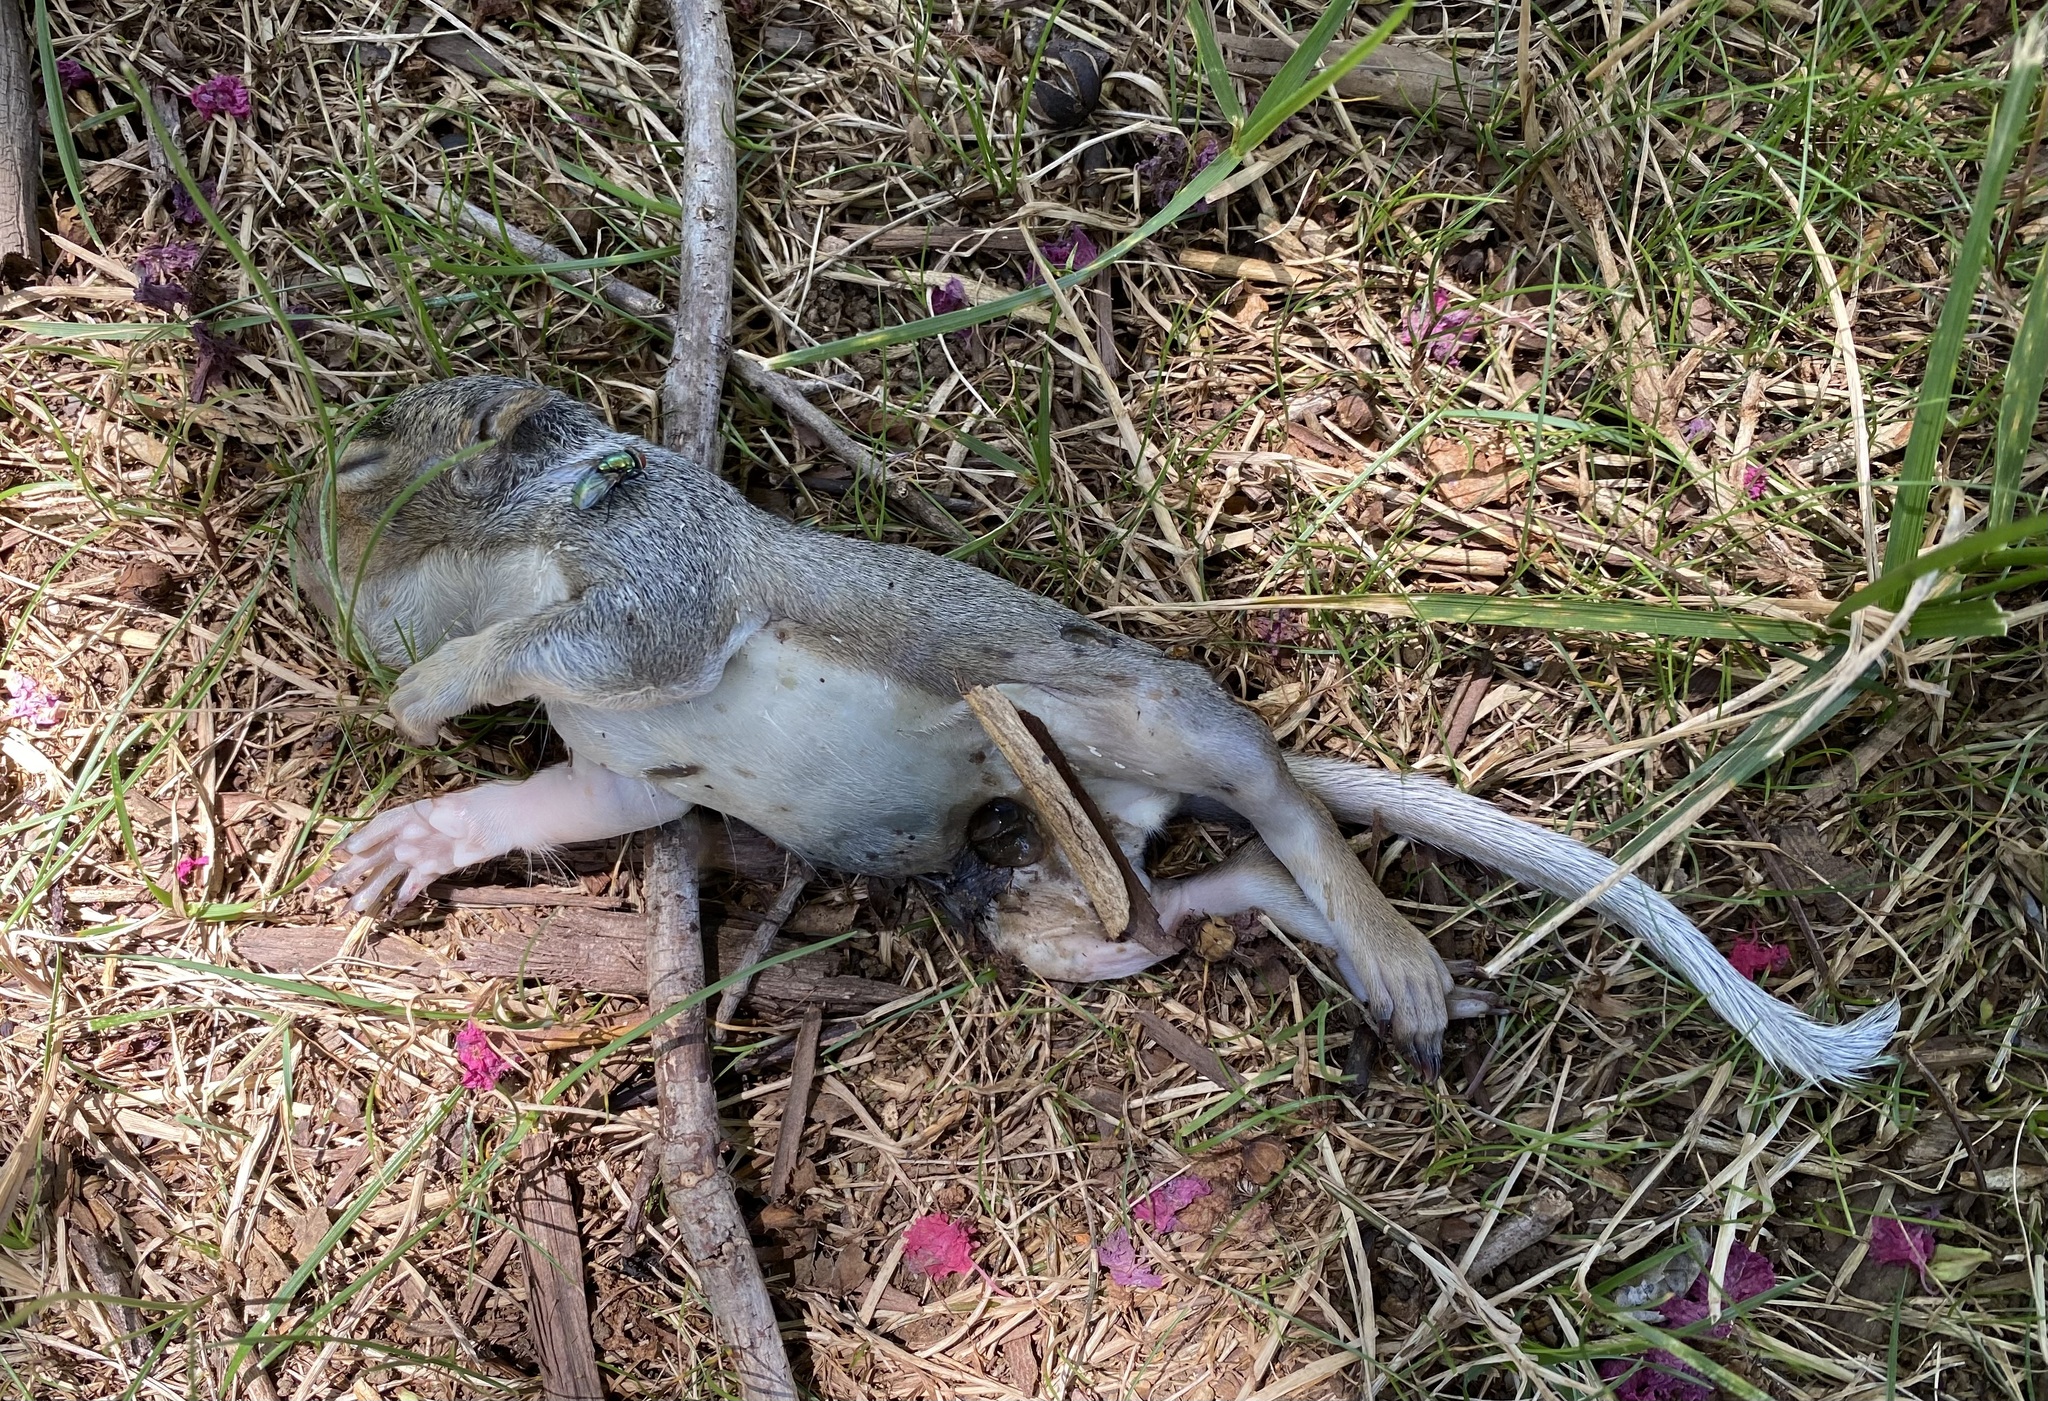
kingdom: Animalia
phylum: Chordata
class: Mammalia
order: Rodentia
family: Sciuridae
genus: Sciurus
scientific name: Sciurus carolinensis
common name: Eastern gray squirrel
